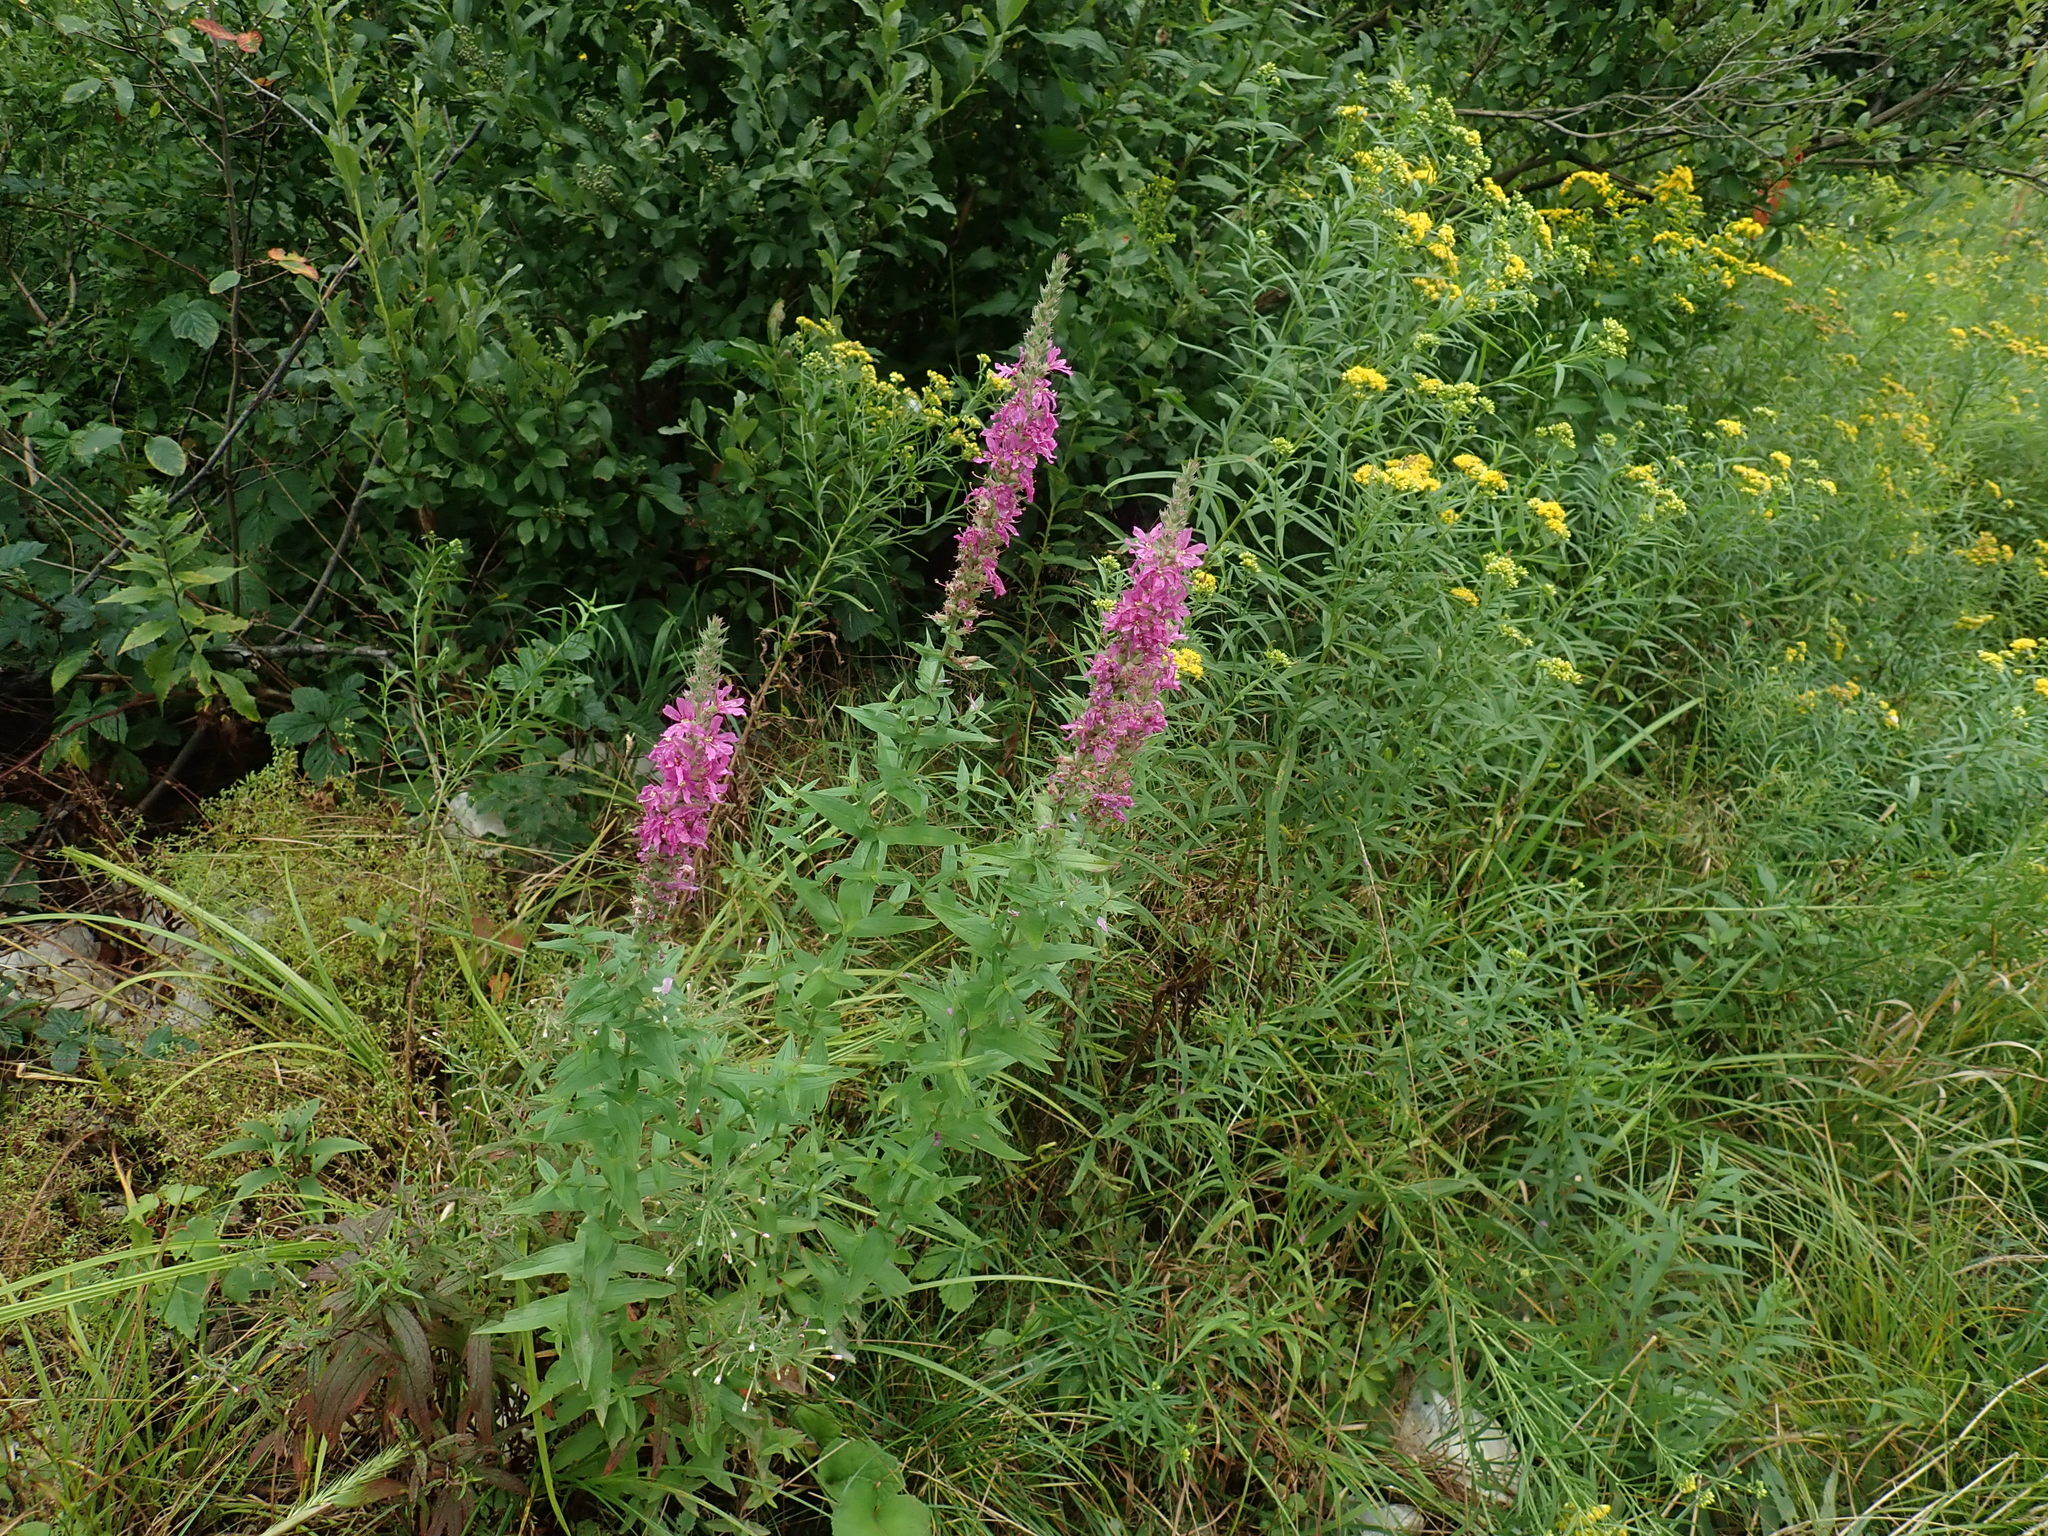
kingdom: Plantae
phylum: Tracheophyta
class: Magnoliopsida
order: Myrtales
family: Lythraceae
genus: Lythrum
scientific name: Lythrum salicaria
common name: Purple loosestrife
